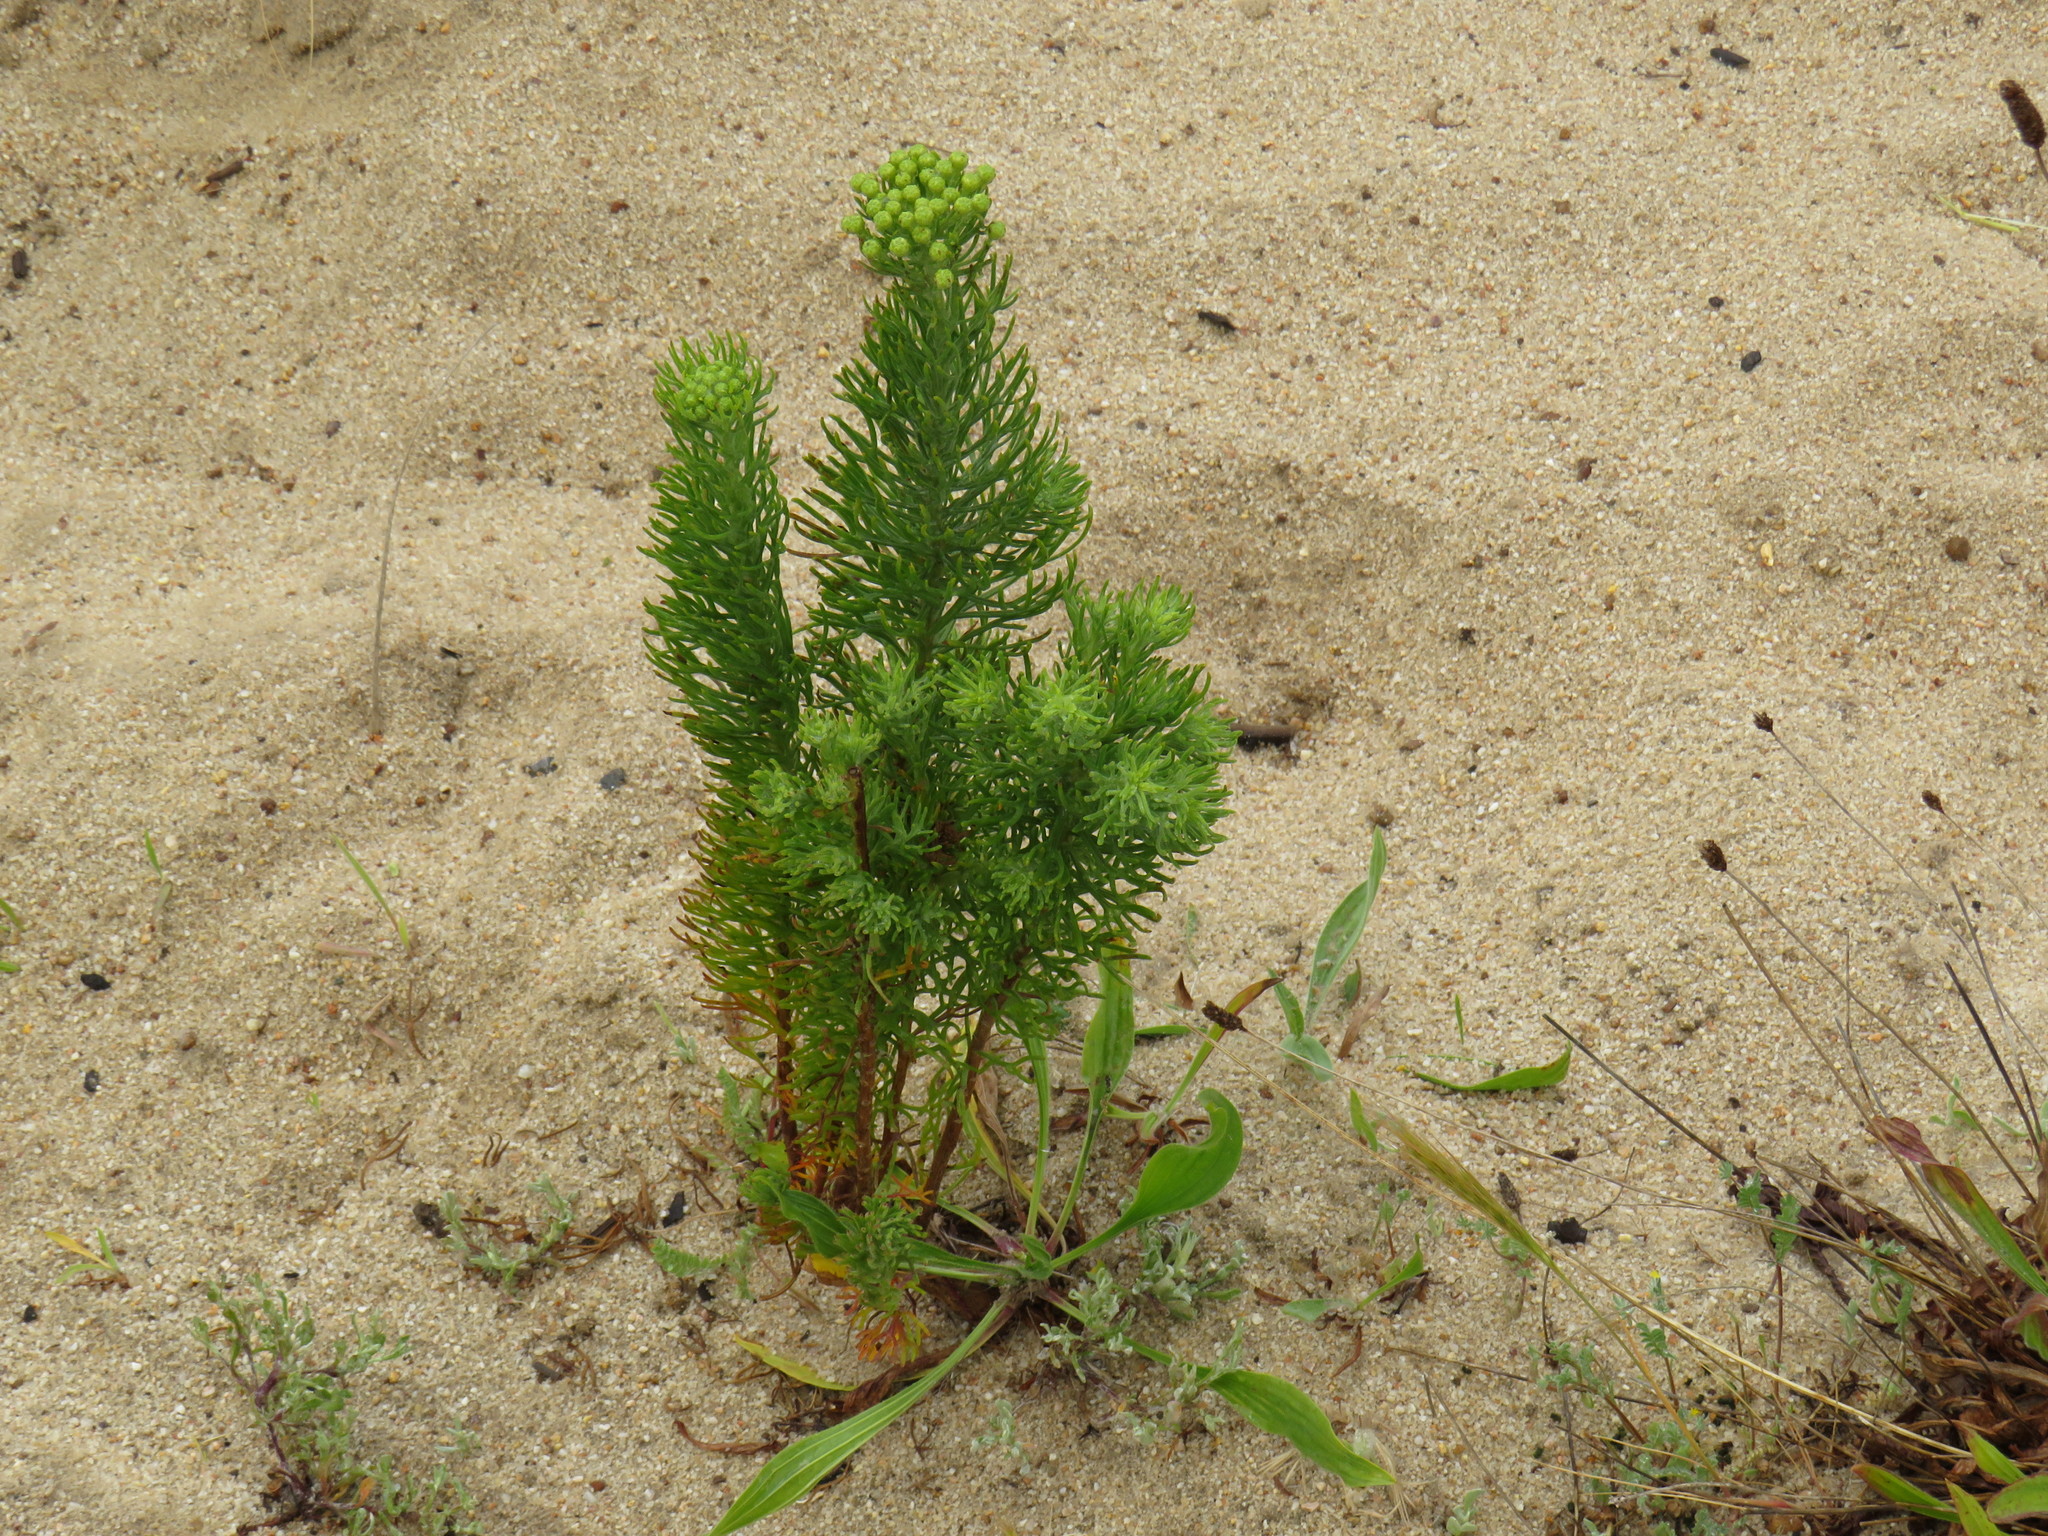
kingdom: Plantae
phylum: Tracheophyta
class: Magnoliopsida
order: Asterales
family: Asteraceae
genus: Athanasia
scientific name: Athanasia crithmifolia
